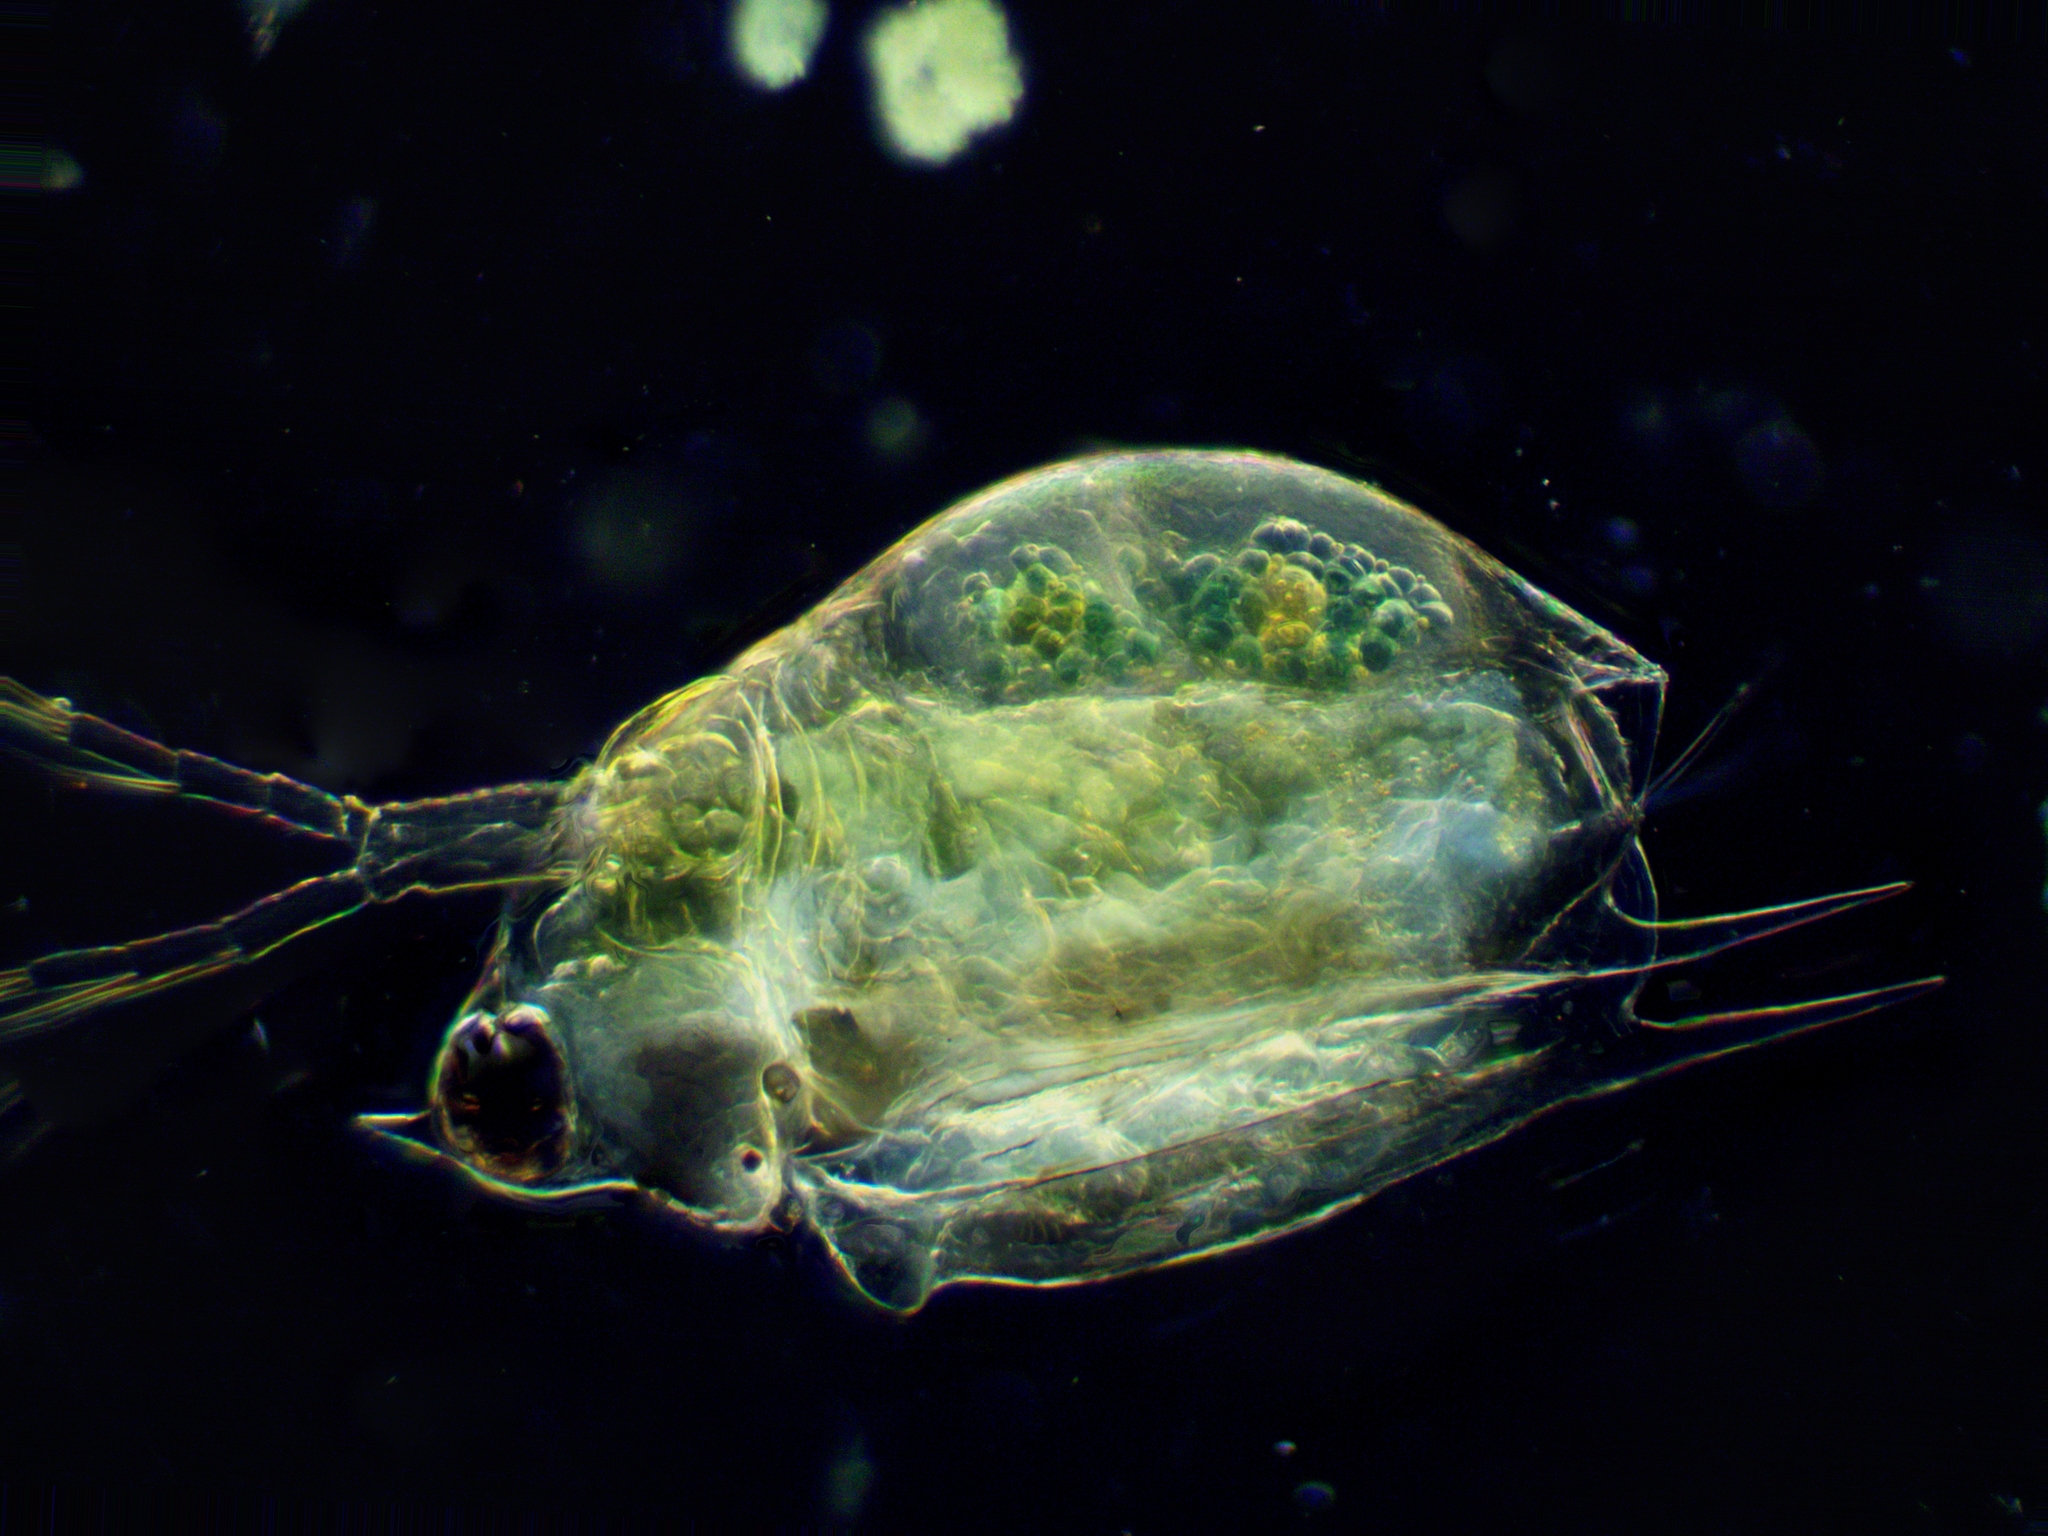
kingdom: Animalia
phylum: Arthropoda
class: Branchiopoda
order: Diplostraca
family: Daphniidae
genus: Scapholeberis
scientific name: Scapholeberis mucronata
